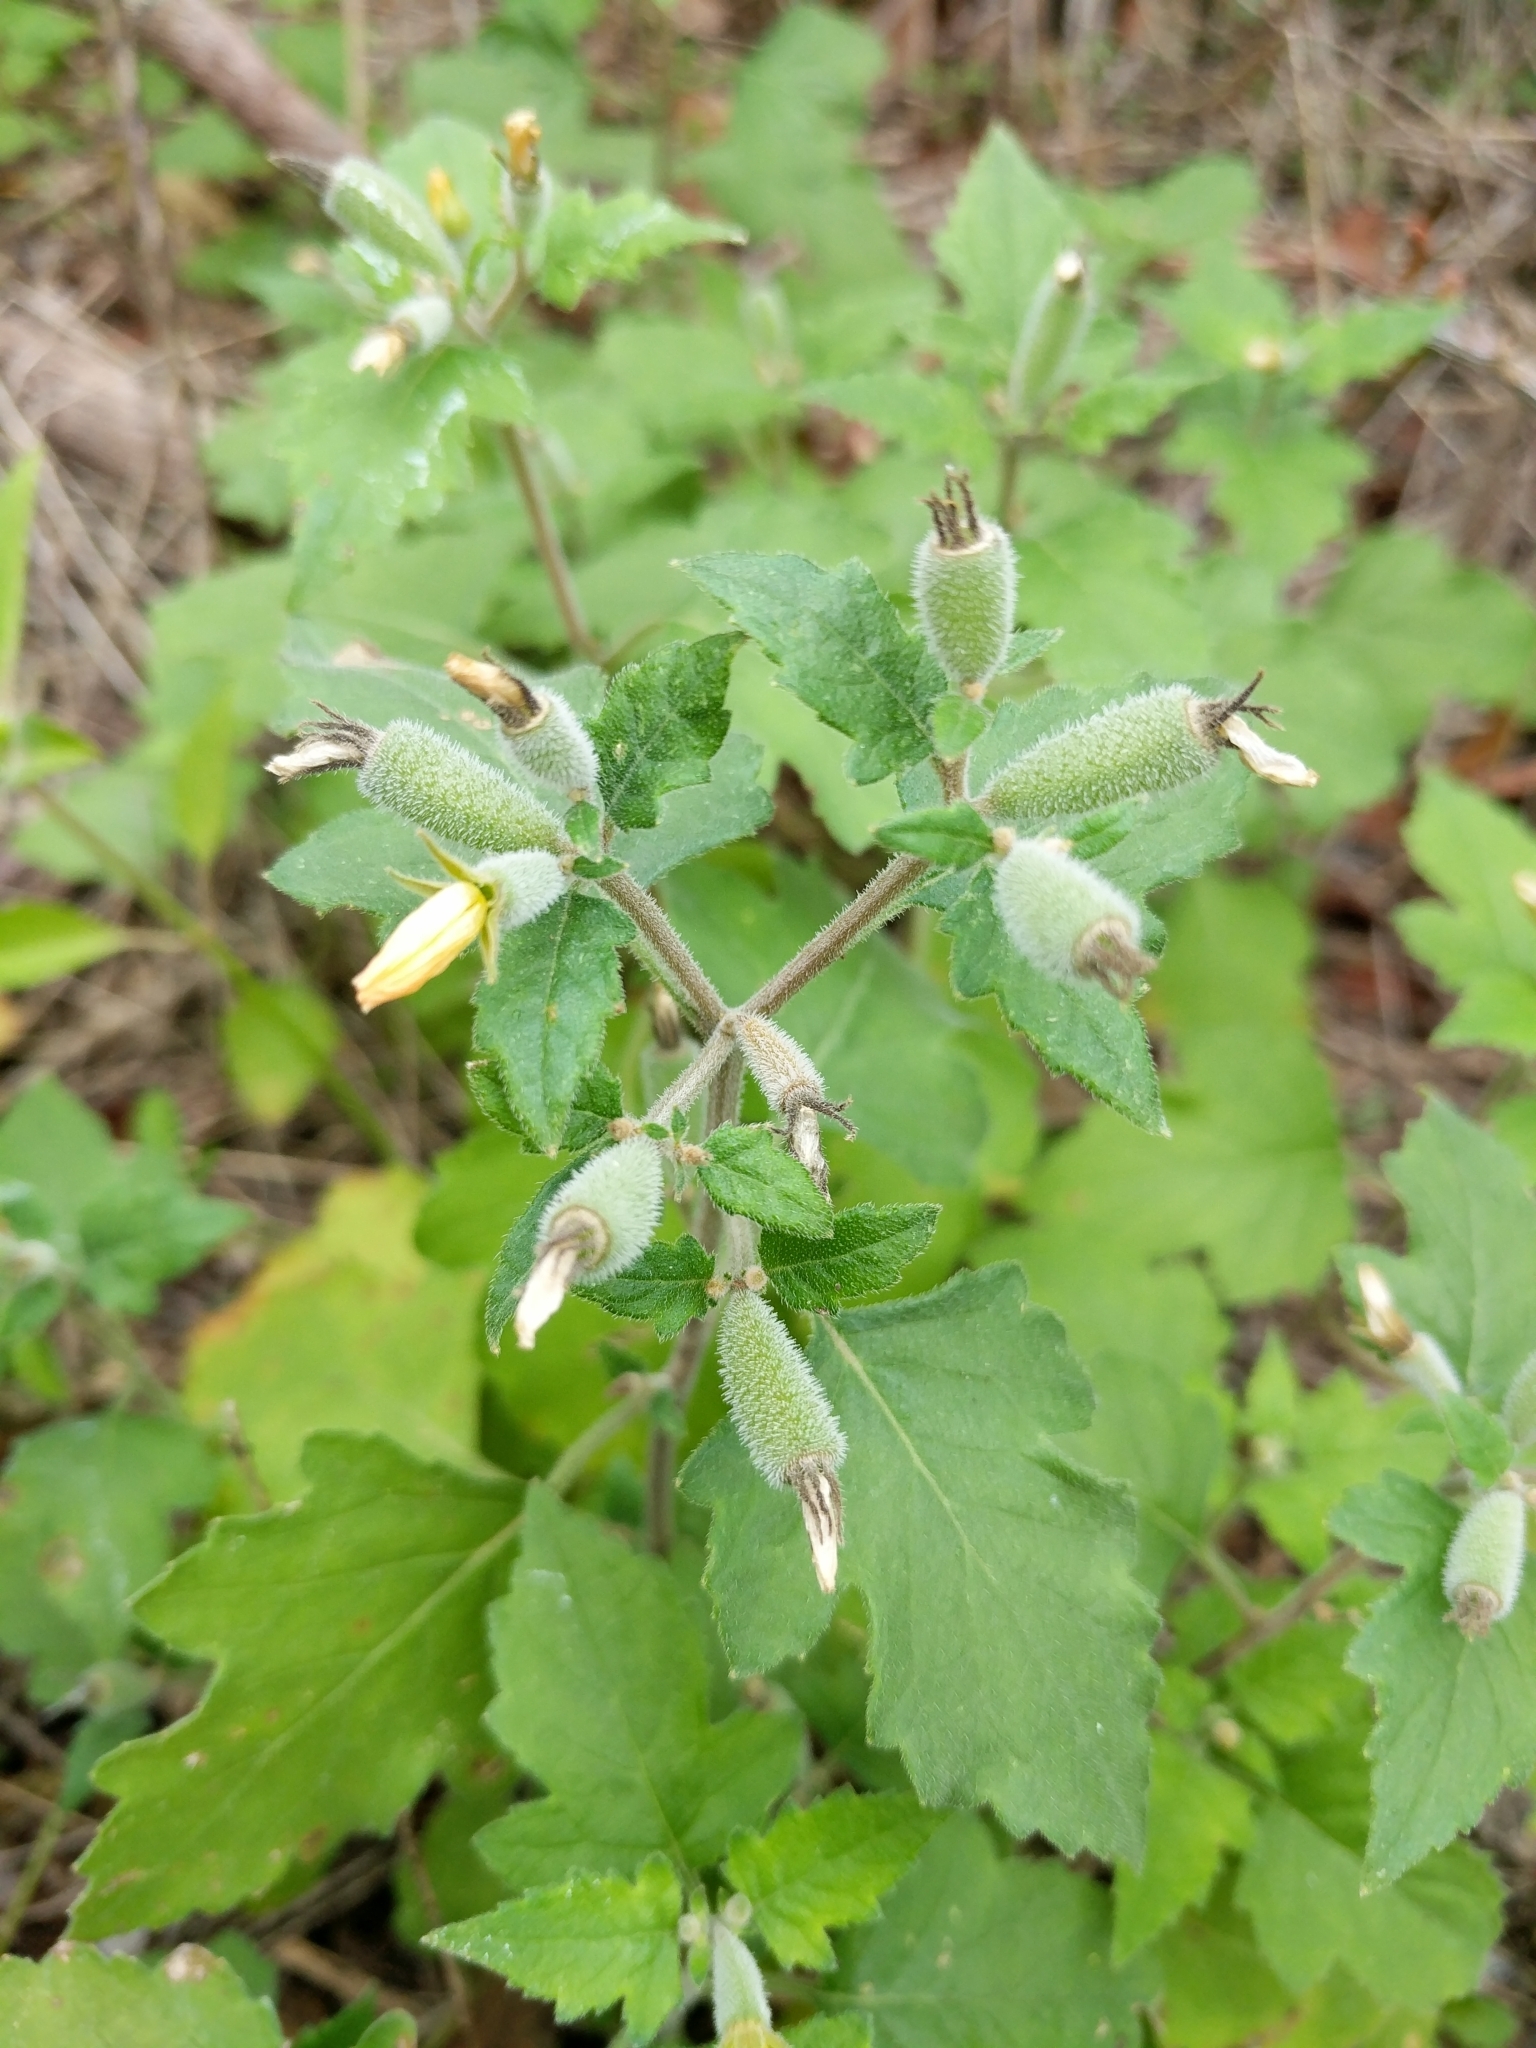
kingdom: Plantae
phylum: Tracheophyta
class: Magnoliopsida
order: Cornales
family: Loasaceae
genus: Mentzelia
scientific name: Mentzelia texana
